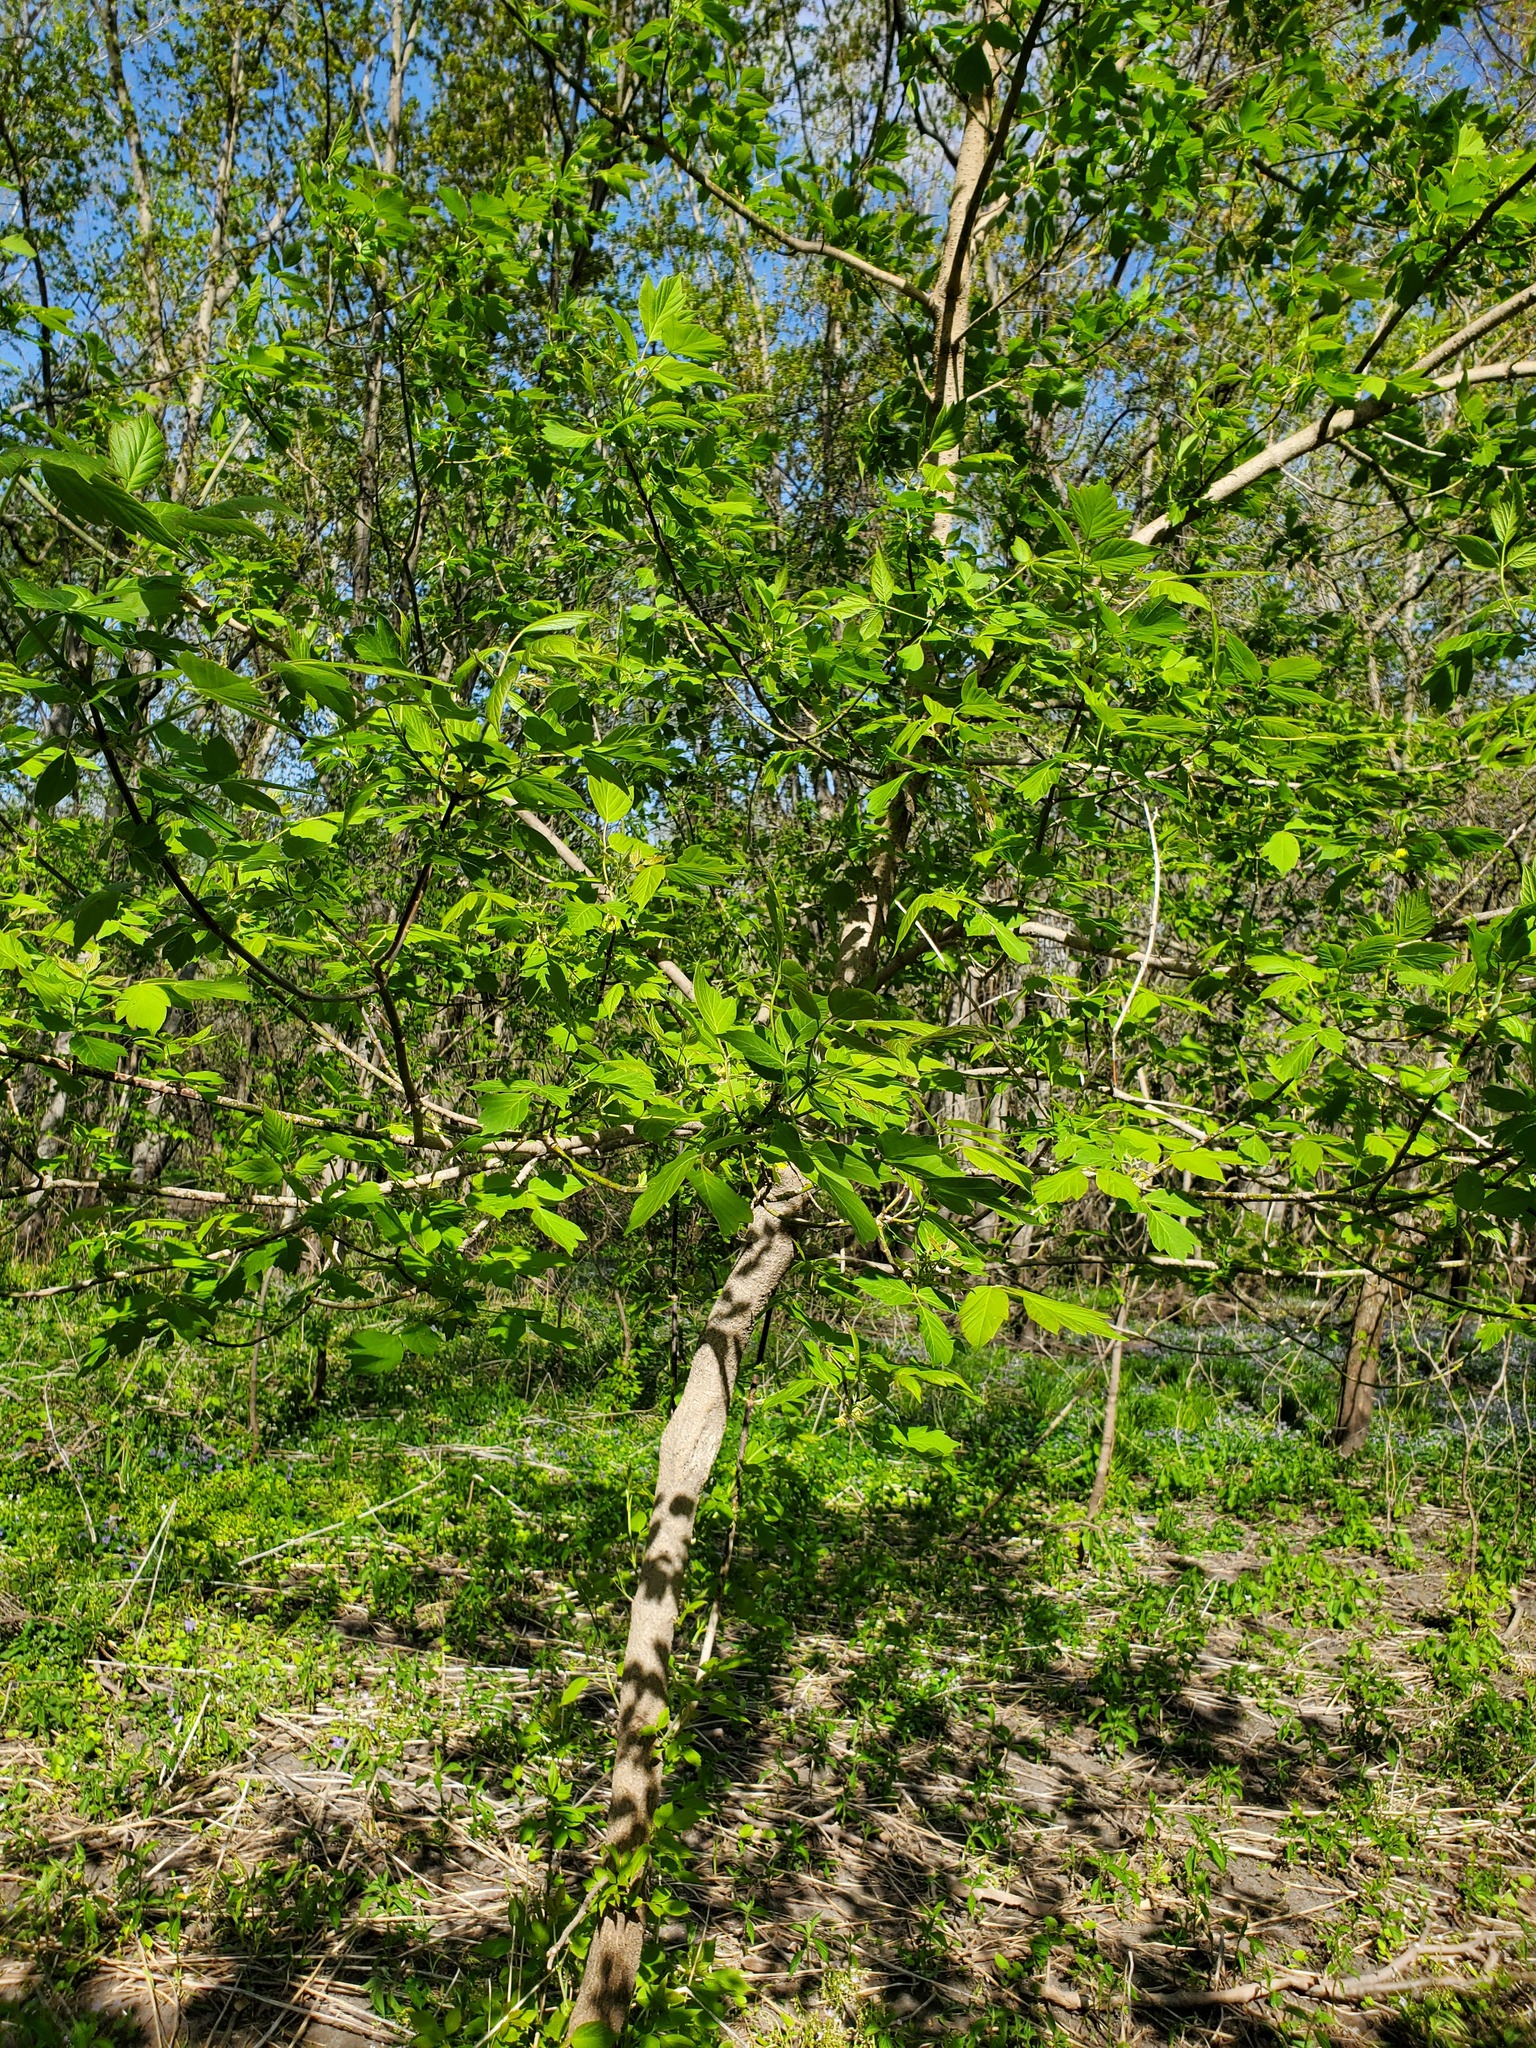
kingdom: Plantae
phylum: Tracheophyta
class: Magnoliopsida
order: Sapindales
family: Sapindaceae
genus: Acer
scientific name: Acer negundo
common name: Ashleaf maple
